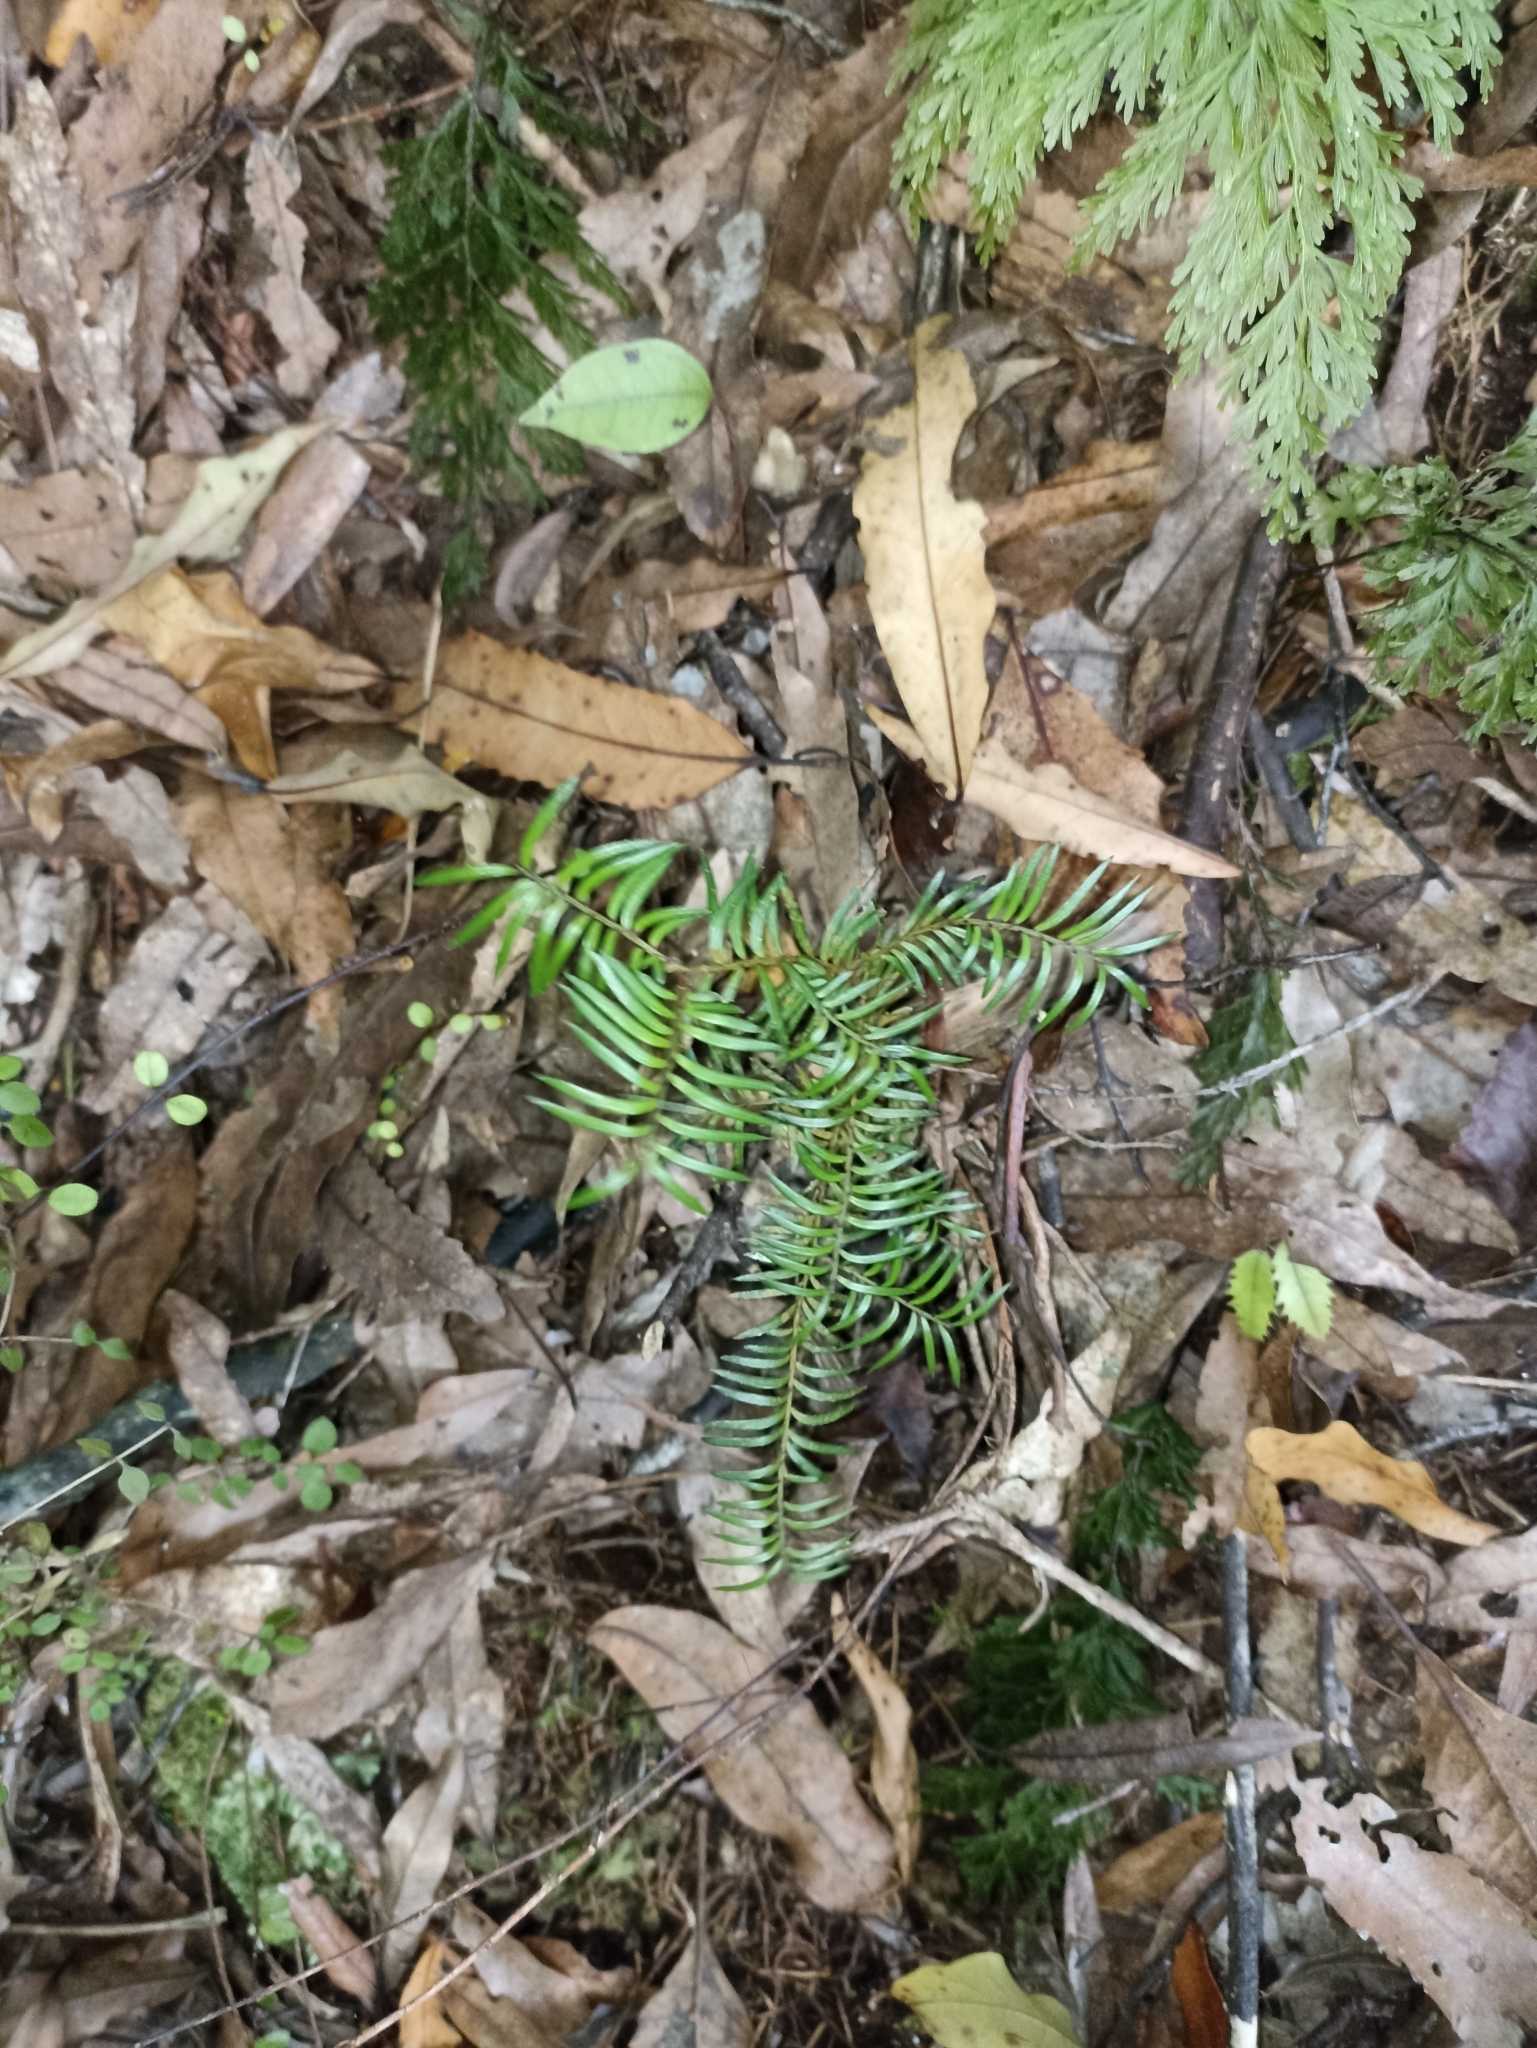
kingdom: Plantae
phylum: Tracheophyta
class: Pinopsida
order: Pinales
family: Podocarpaceae
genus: Prumnopitys
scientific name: Prumnopitys ferruginea
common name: Brown pine
